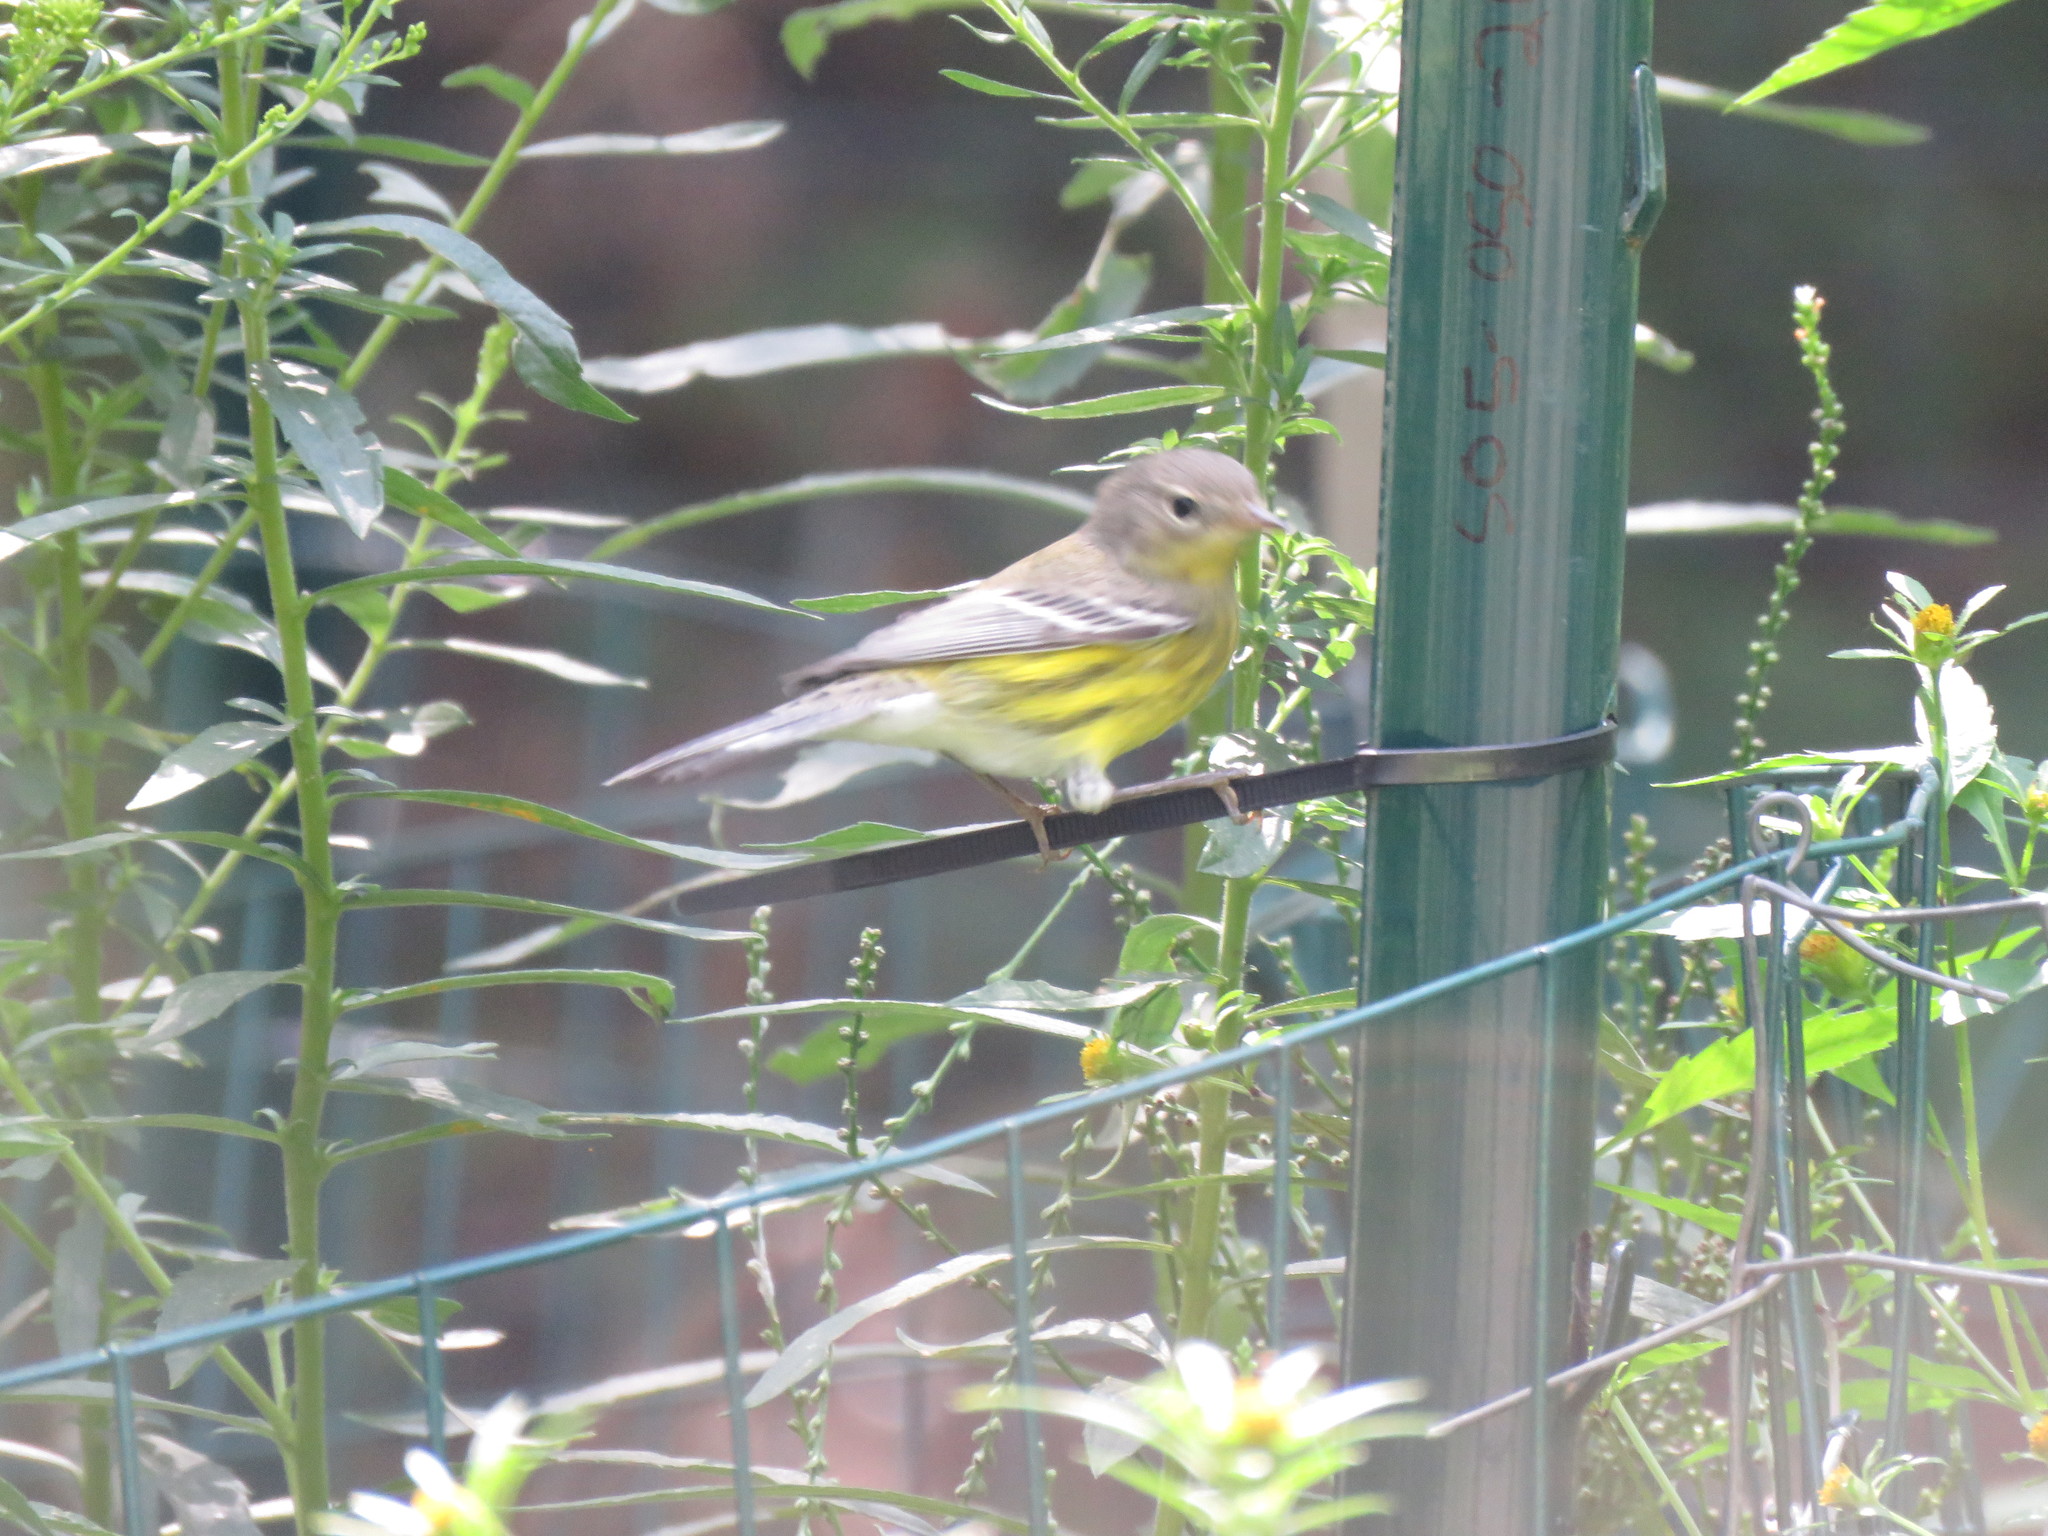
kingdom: Animalia
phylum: Chordata
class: Aves
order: Passeriformes
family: Parulidae
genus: Setophaga
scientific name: Setophaga magnolia
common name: Magnolia warbler
